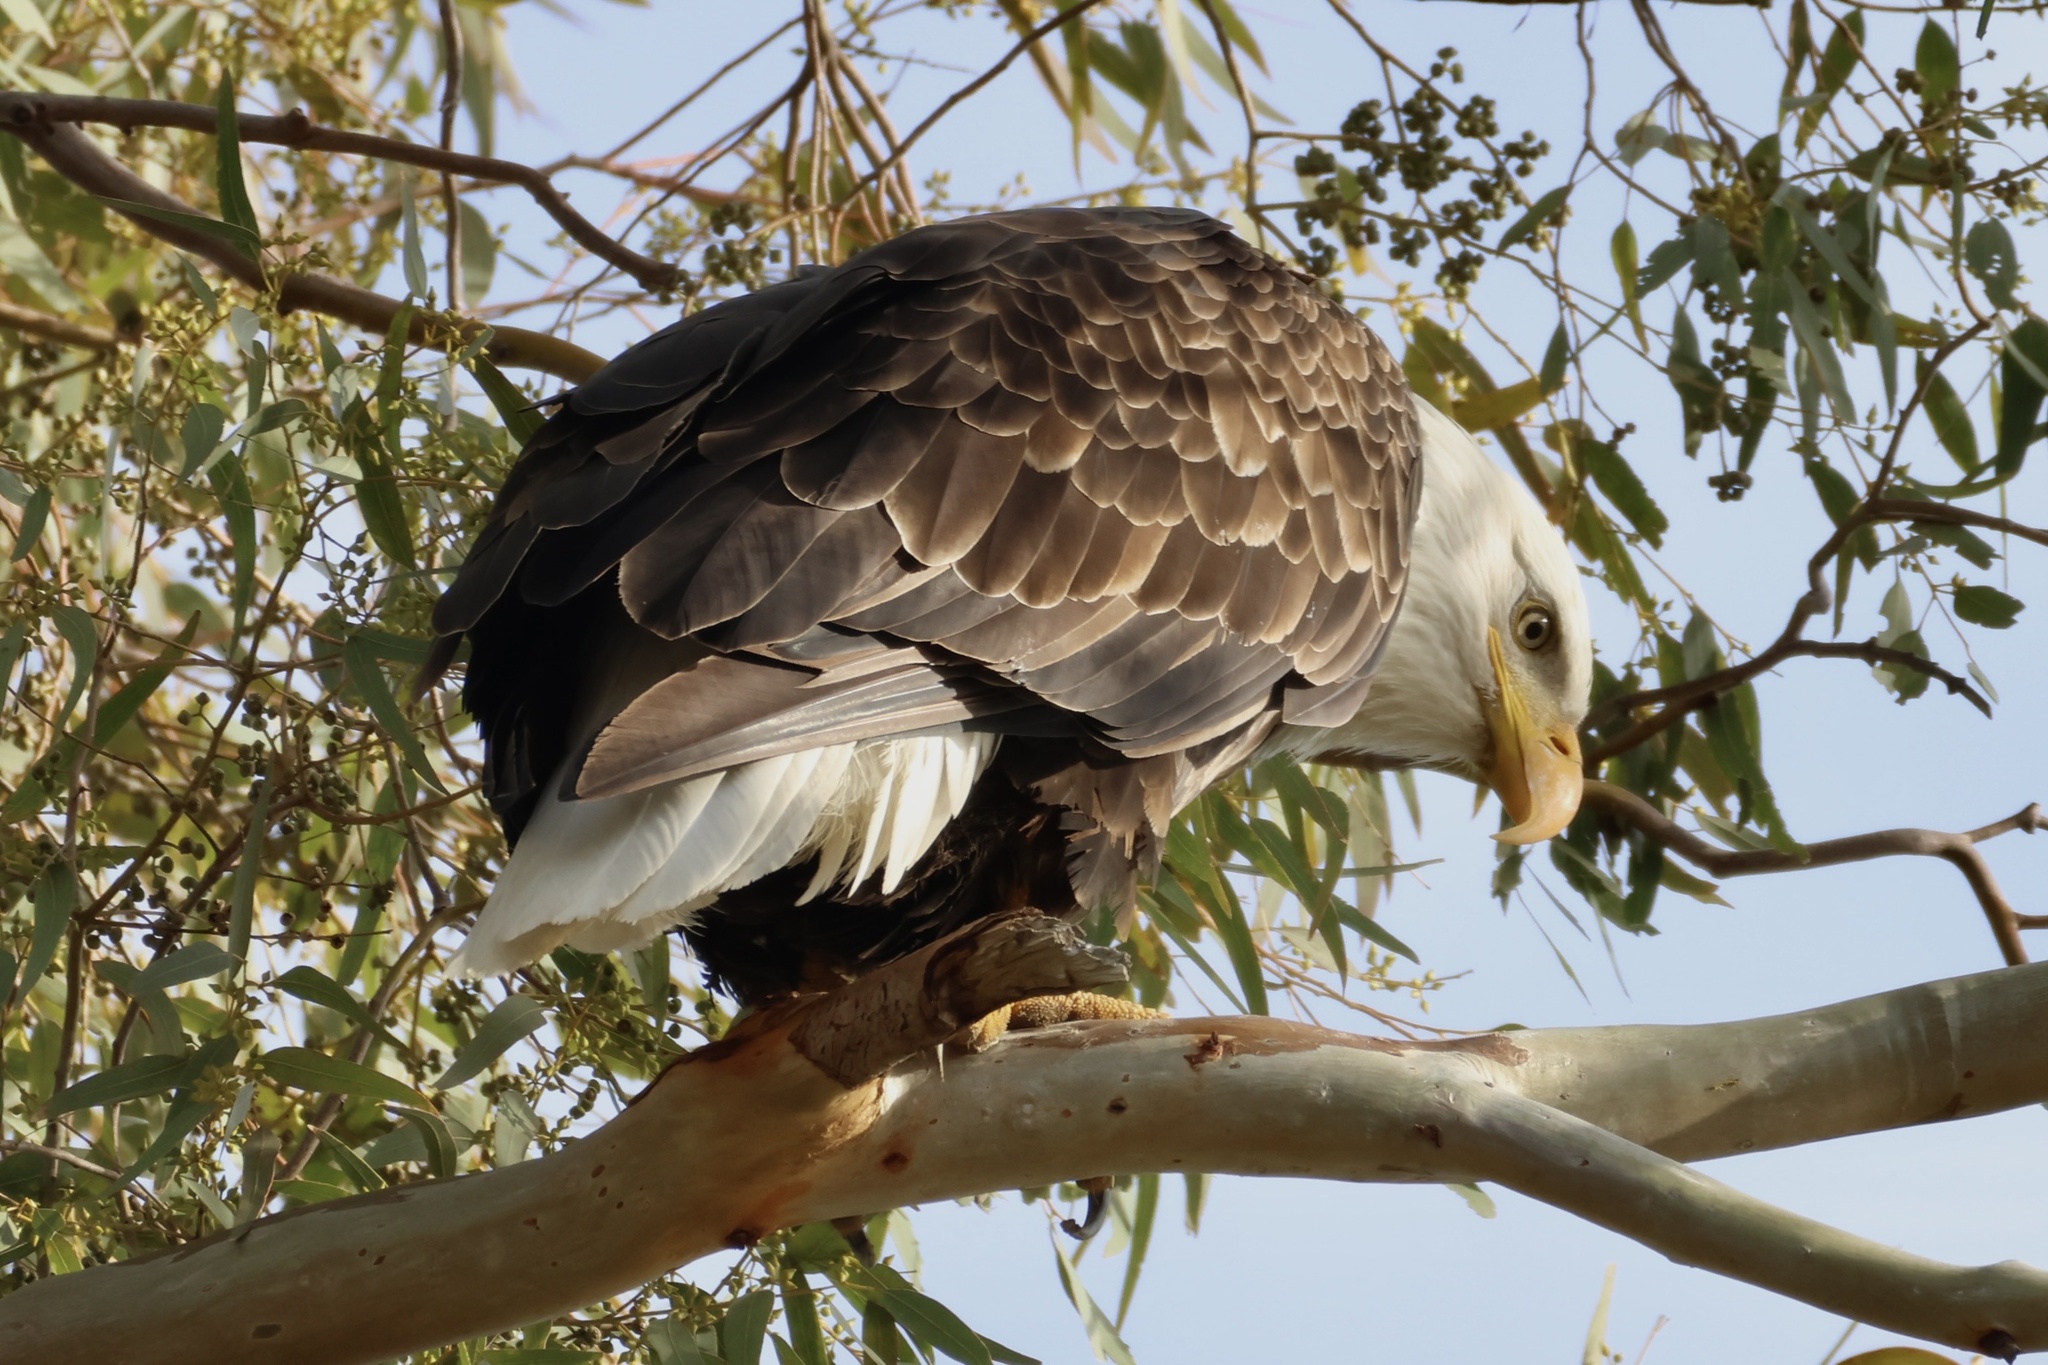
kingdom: Animalia
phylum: Chordata
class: Aves
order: Accipitriformes
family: Accipitridae
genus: Haliaeetus
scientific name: Haliaeetus leucocephalus
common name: Bald eagle
